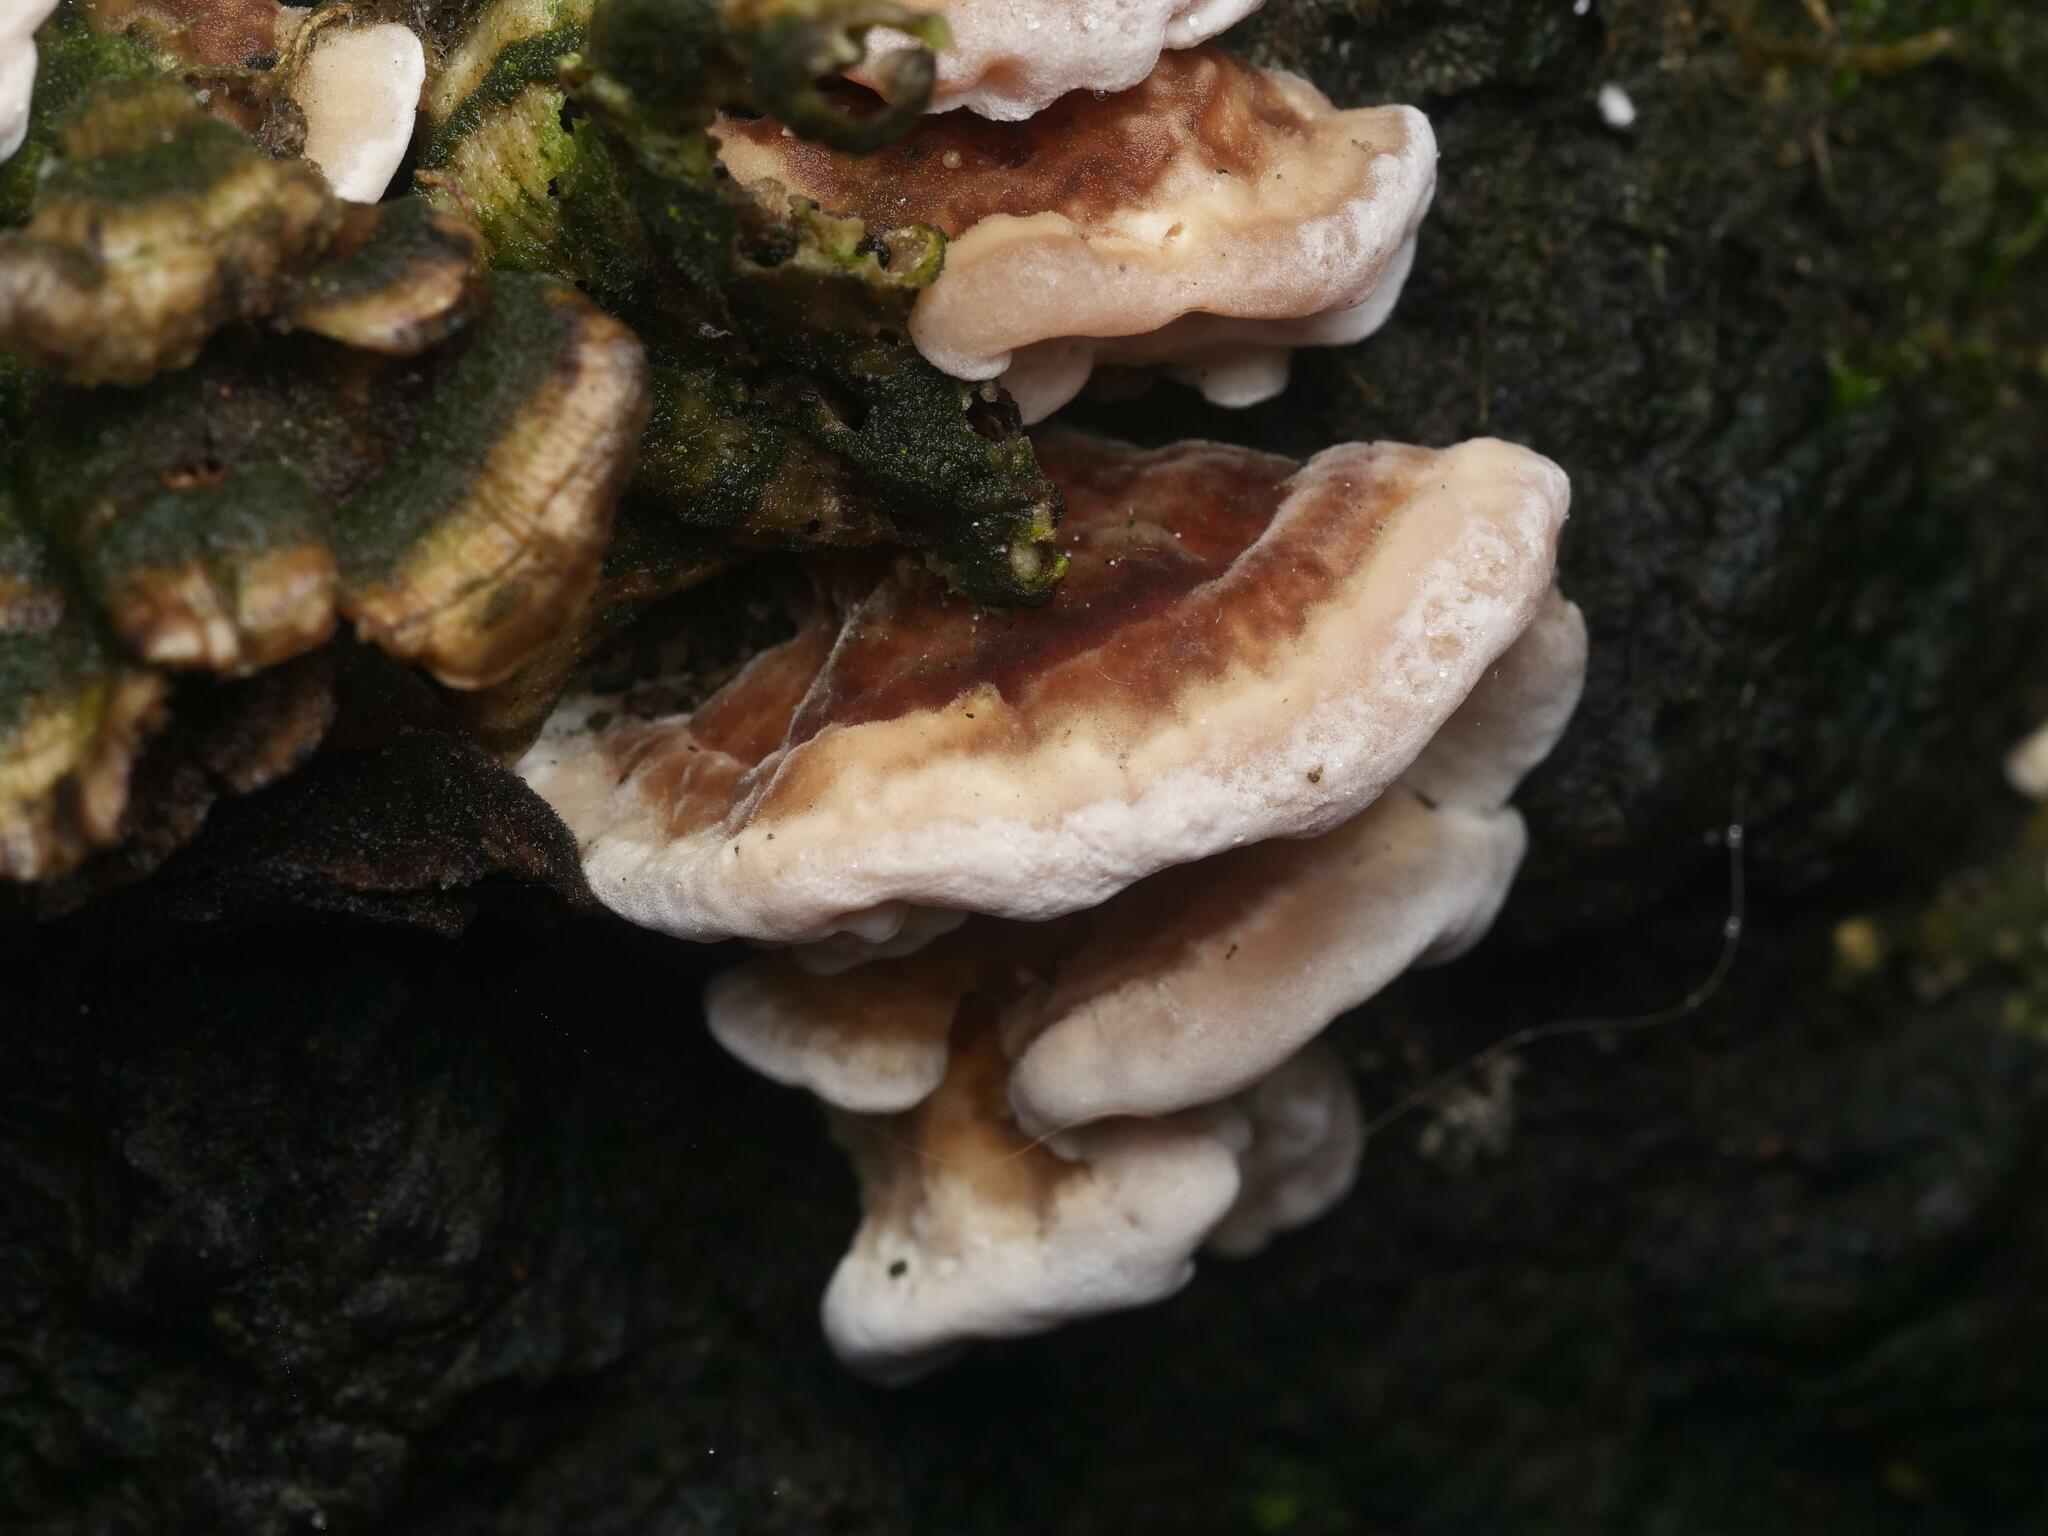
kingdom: Fungi
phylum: Basidiomycota
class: Agaricomycetes
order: Polyporales
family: Polyporaceae
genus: Trametes
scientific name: Trametes versicolor
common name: Turkeytail
